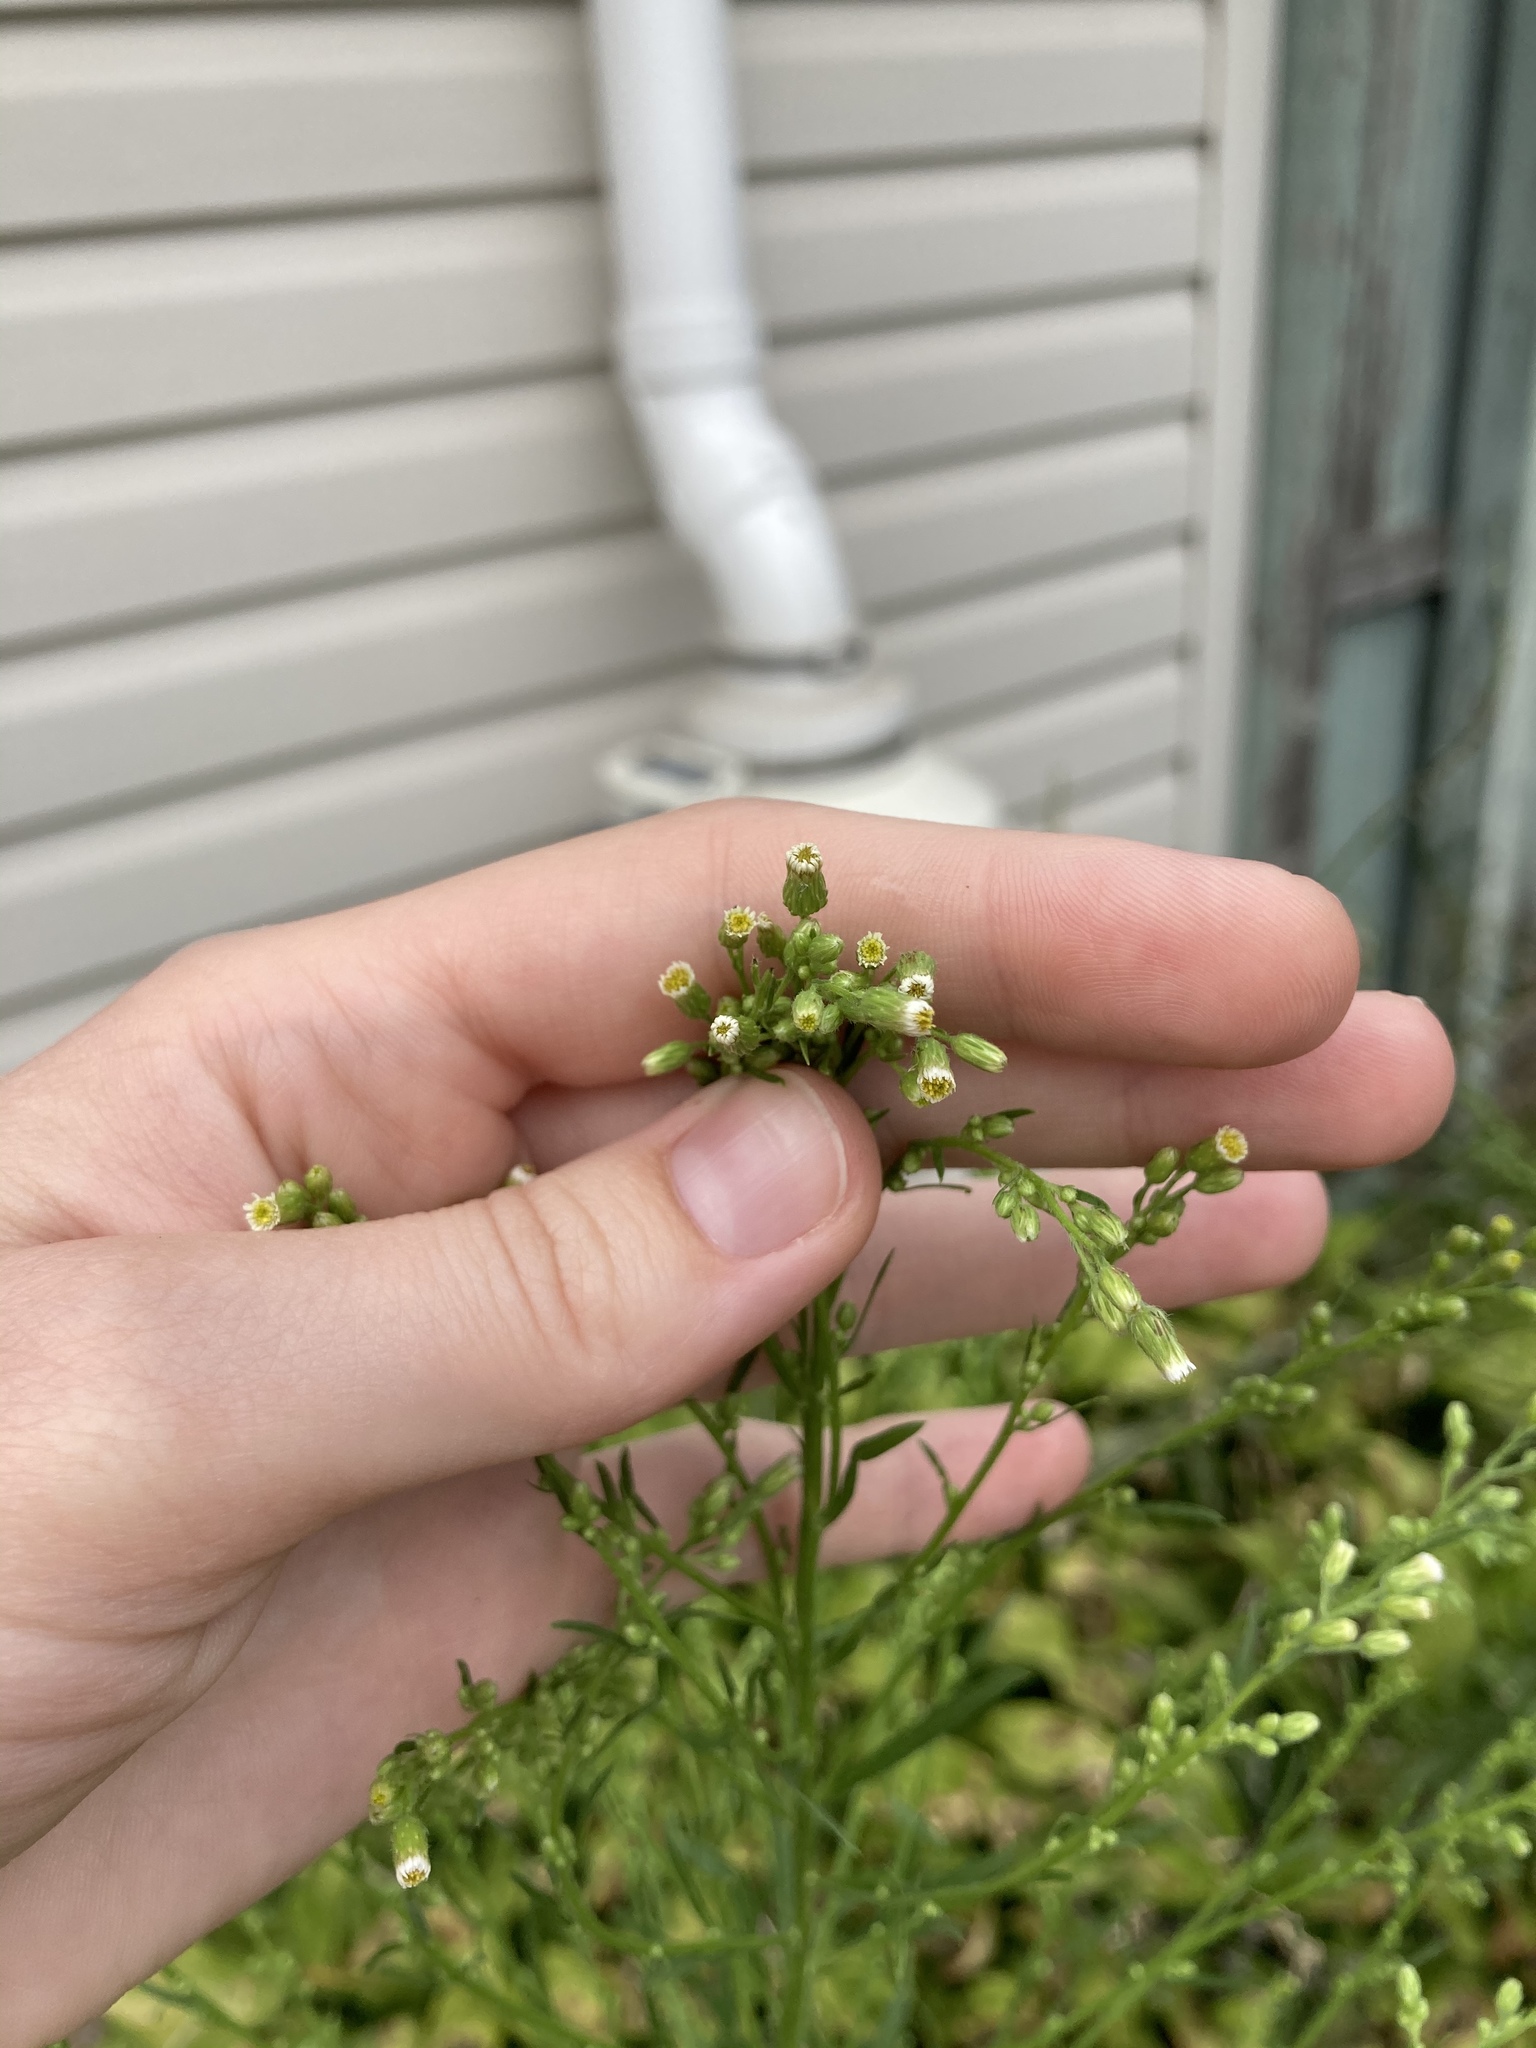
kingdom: Plantae
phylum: Tracheophyta
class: Magnoliopsida
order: Asterales
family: Asteraceae
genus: Erigeron
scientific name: Erigeron canadensis
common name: Canadian fleabane
